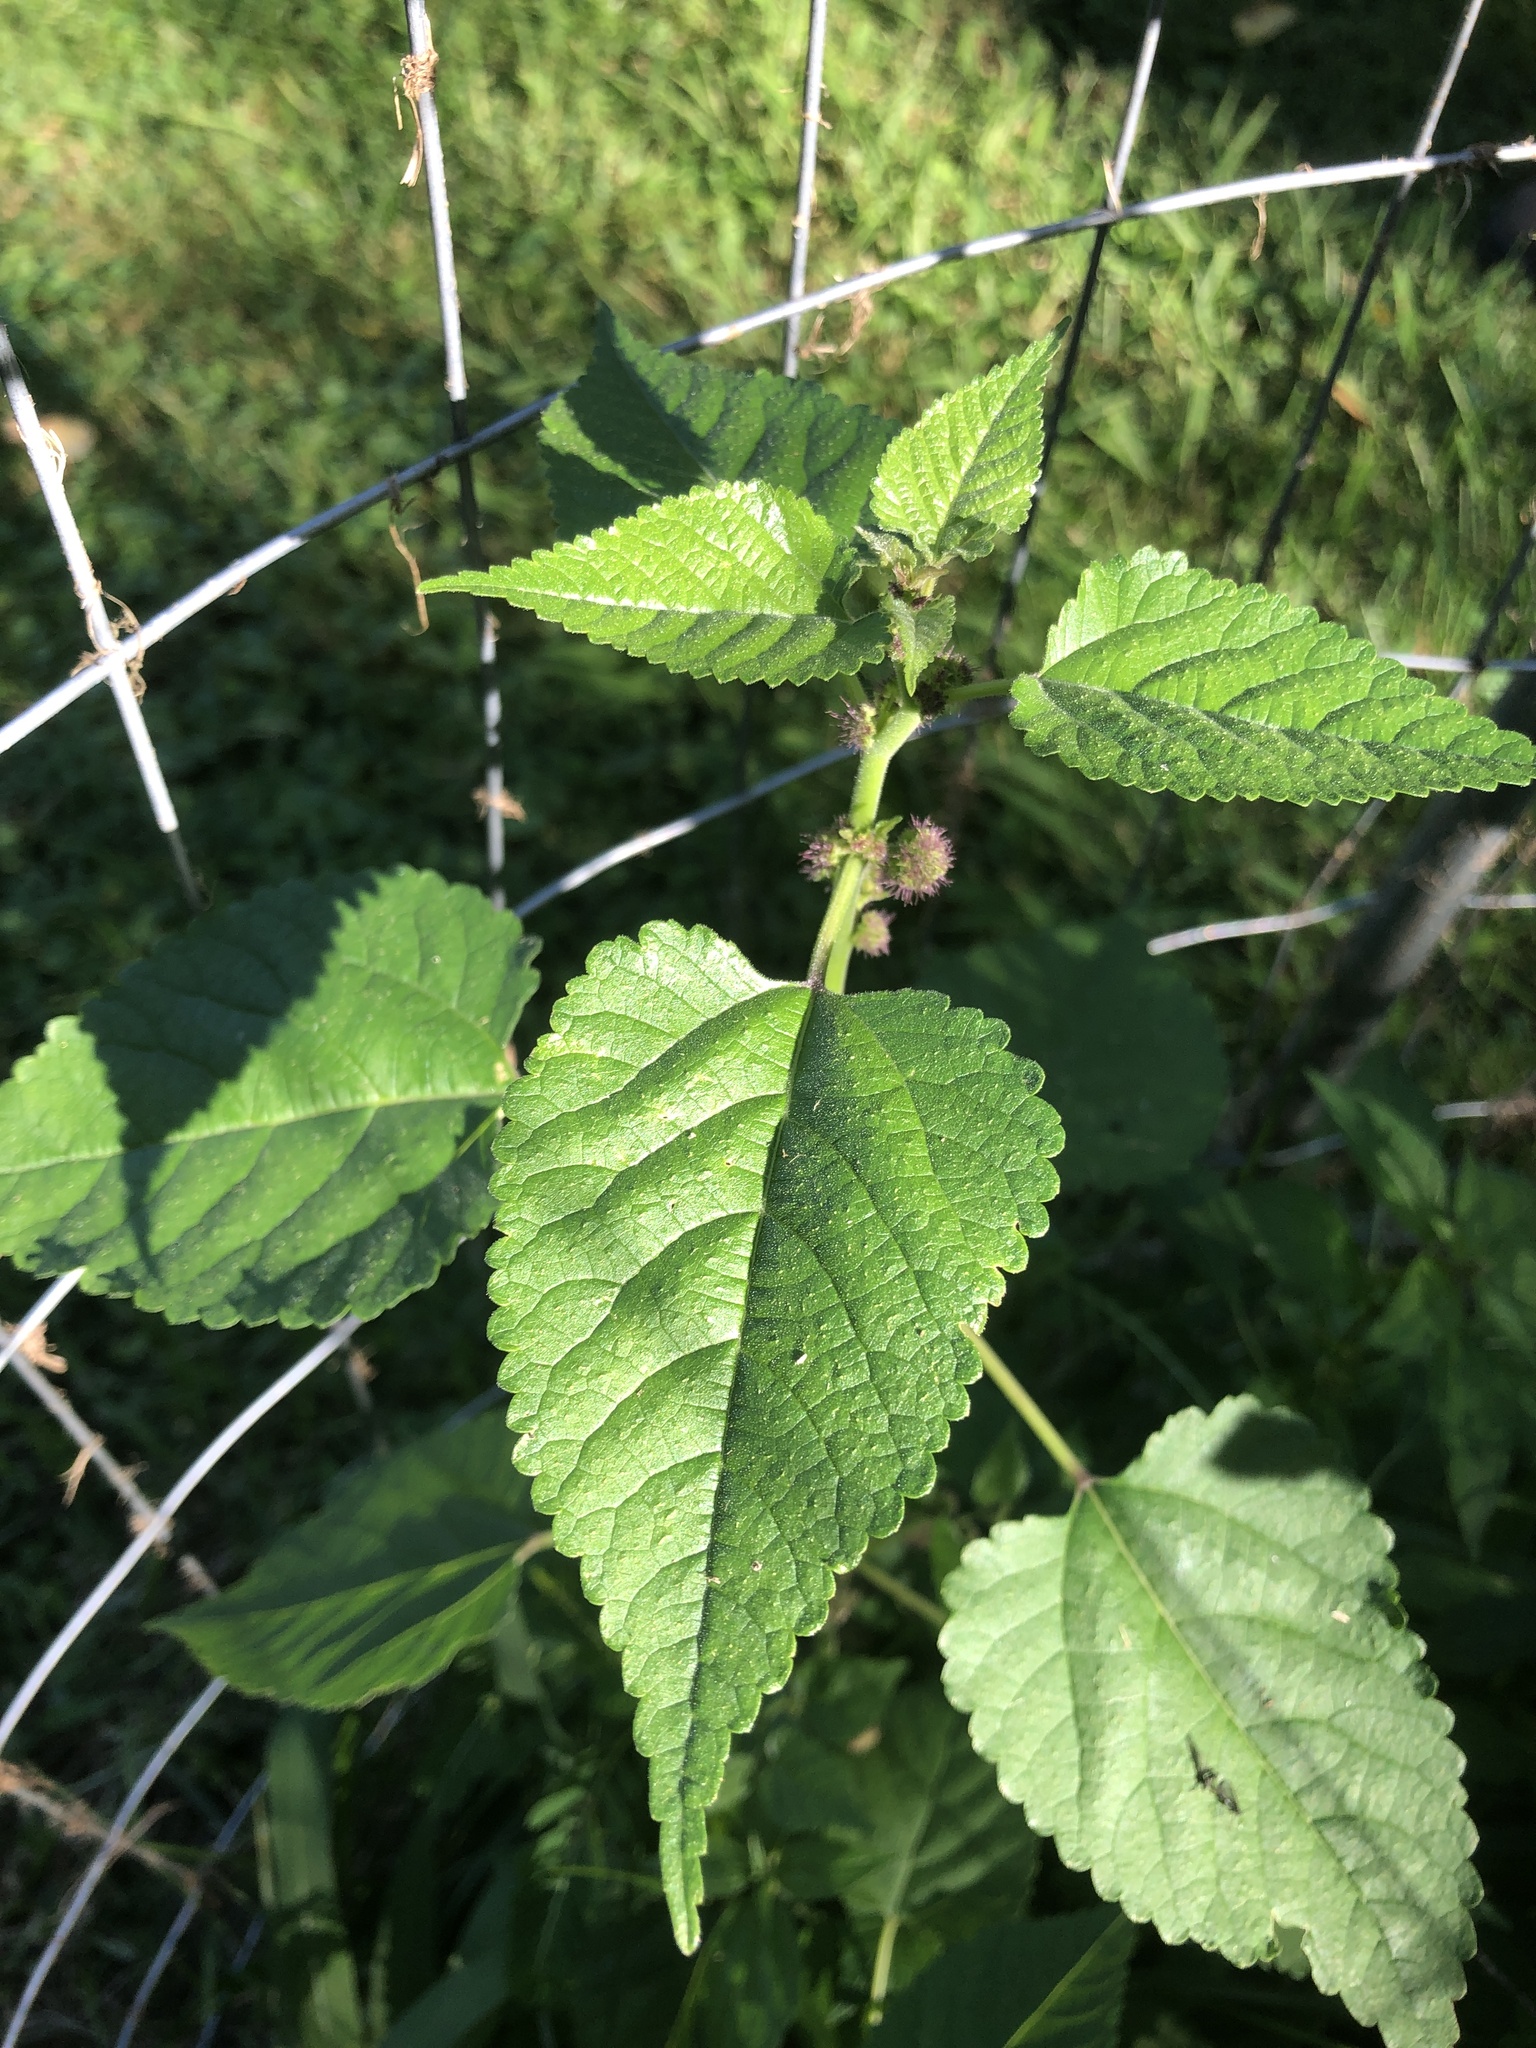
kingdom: Plantae
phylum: Tracheophyta
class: Magnoliopsida
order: Rosales
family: Moraceae
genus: Fatoua
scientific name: Fatoua villosa
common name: Hairy crabweed
